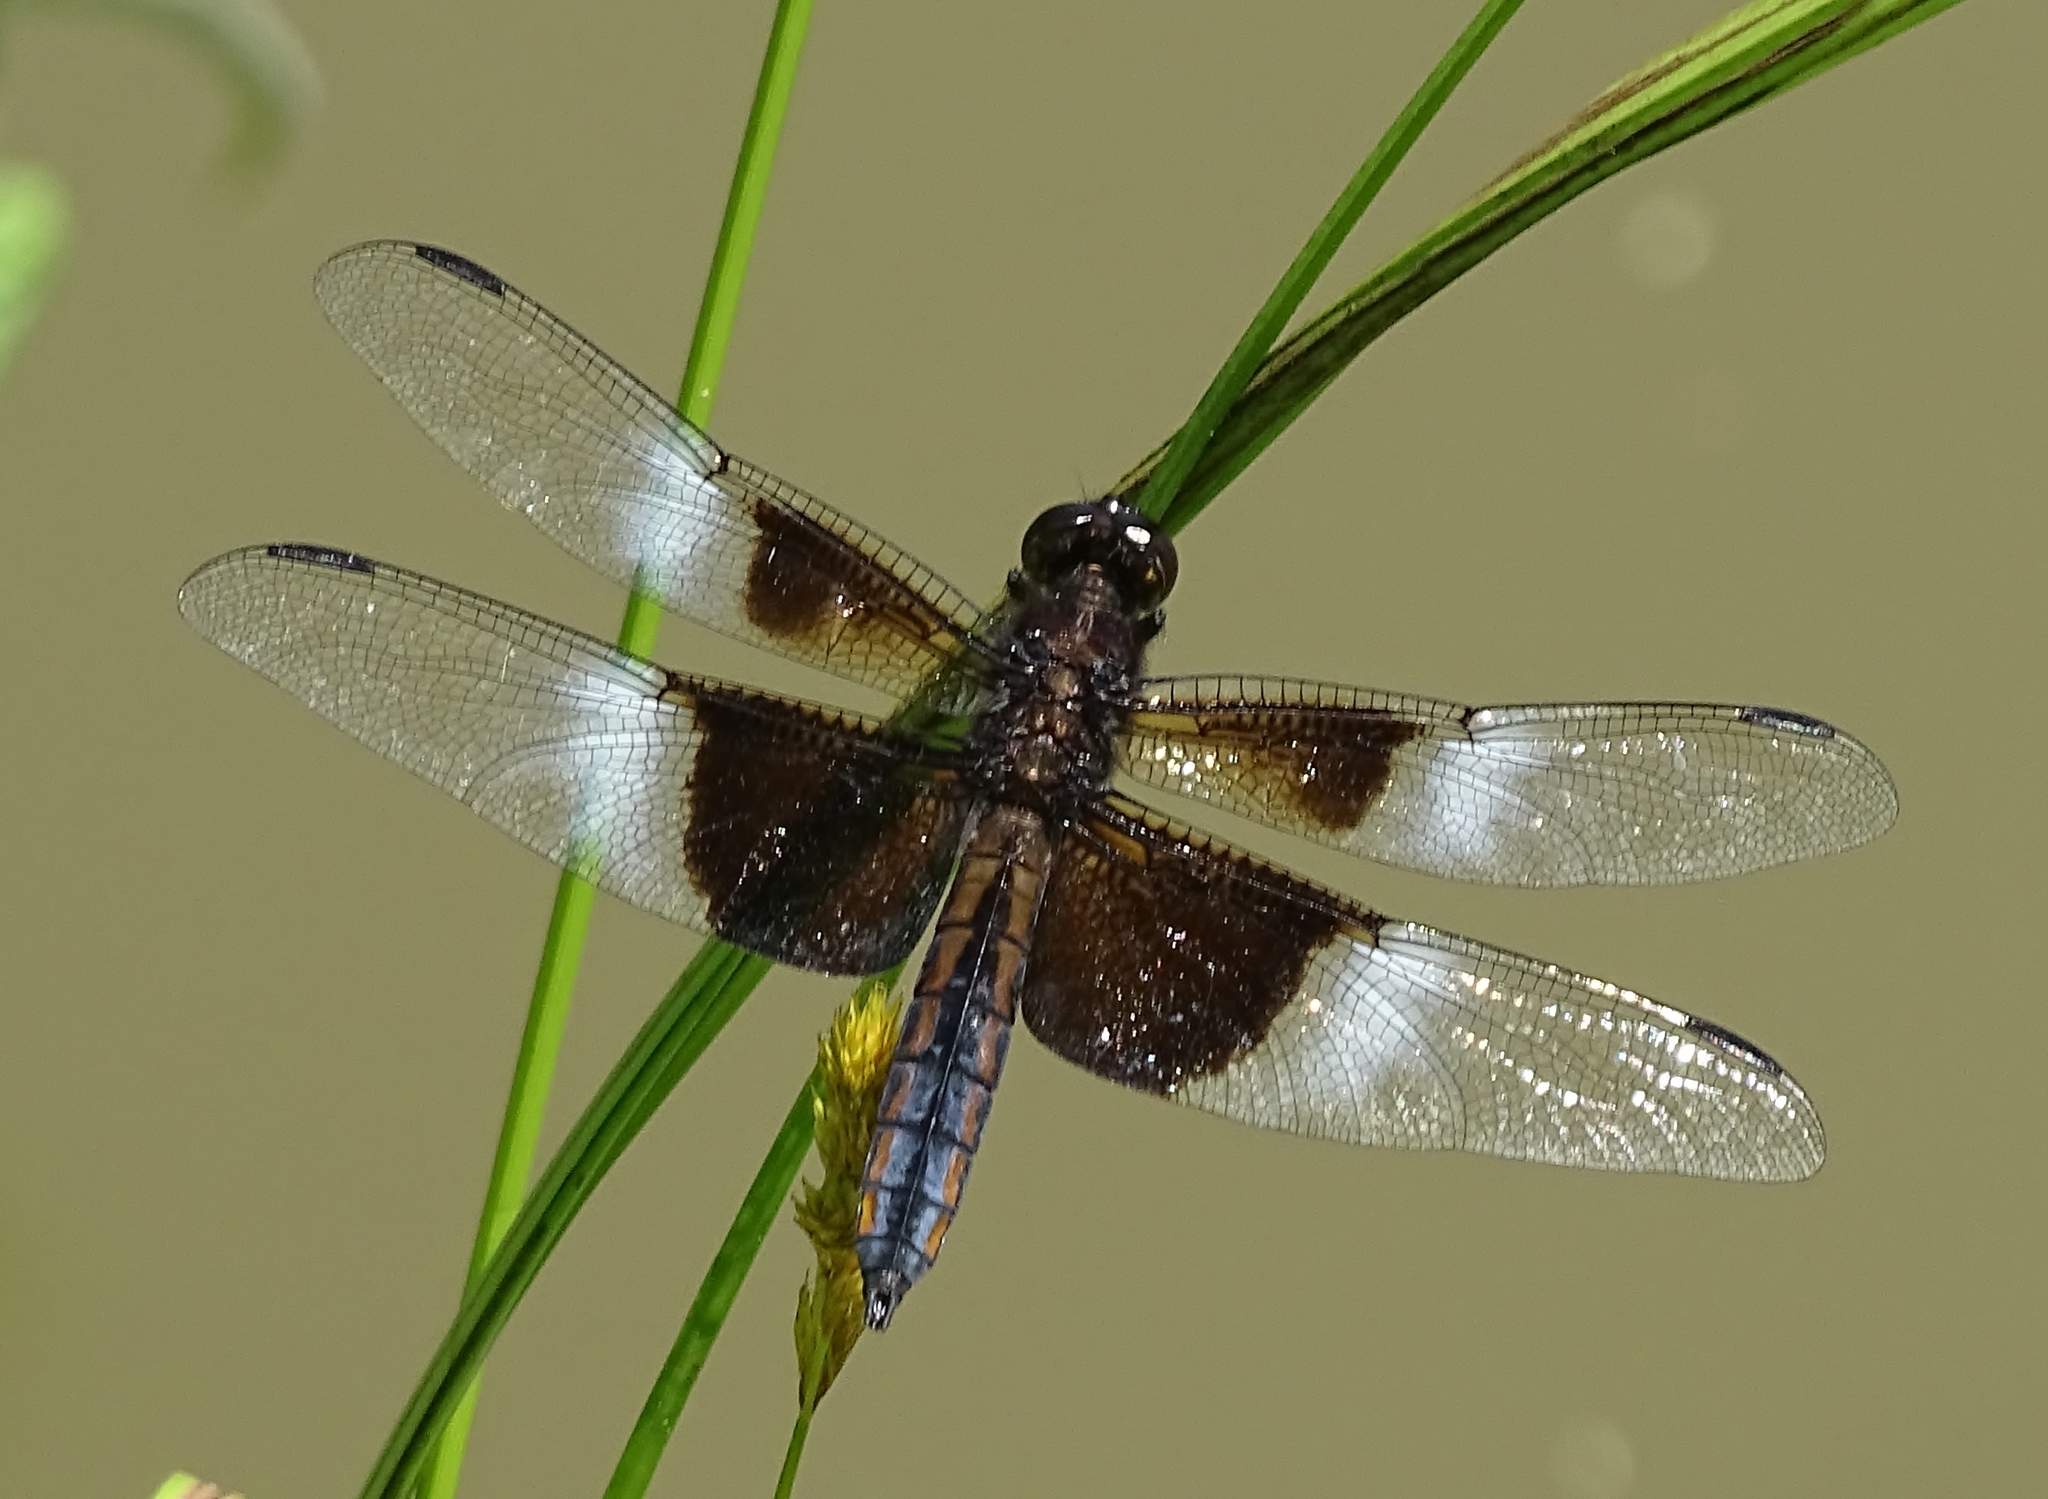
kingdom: Animalia
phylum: Arthropoda
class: Insecta
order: Odonata
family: Libellulidae
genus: Libellula
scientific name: Libellula luctuosa
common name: Widow skimmer
